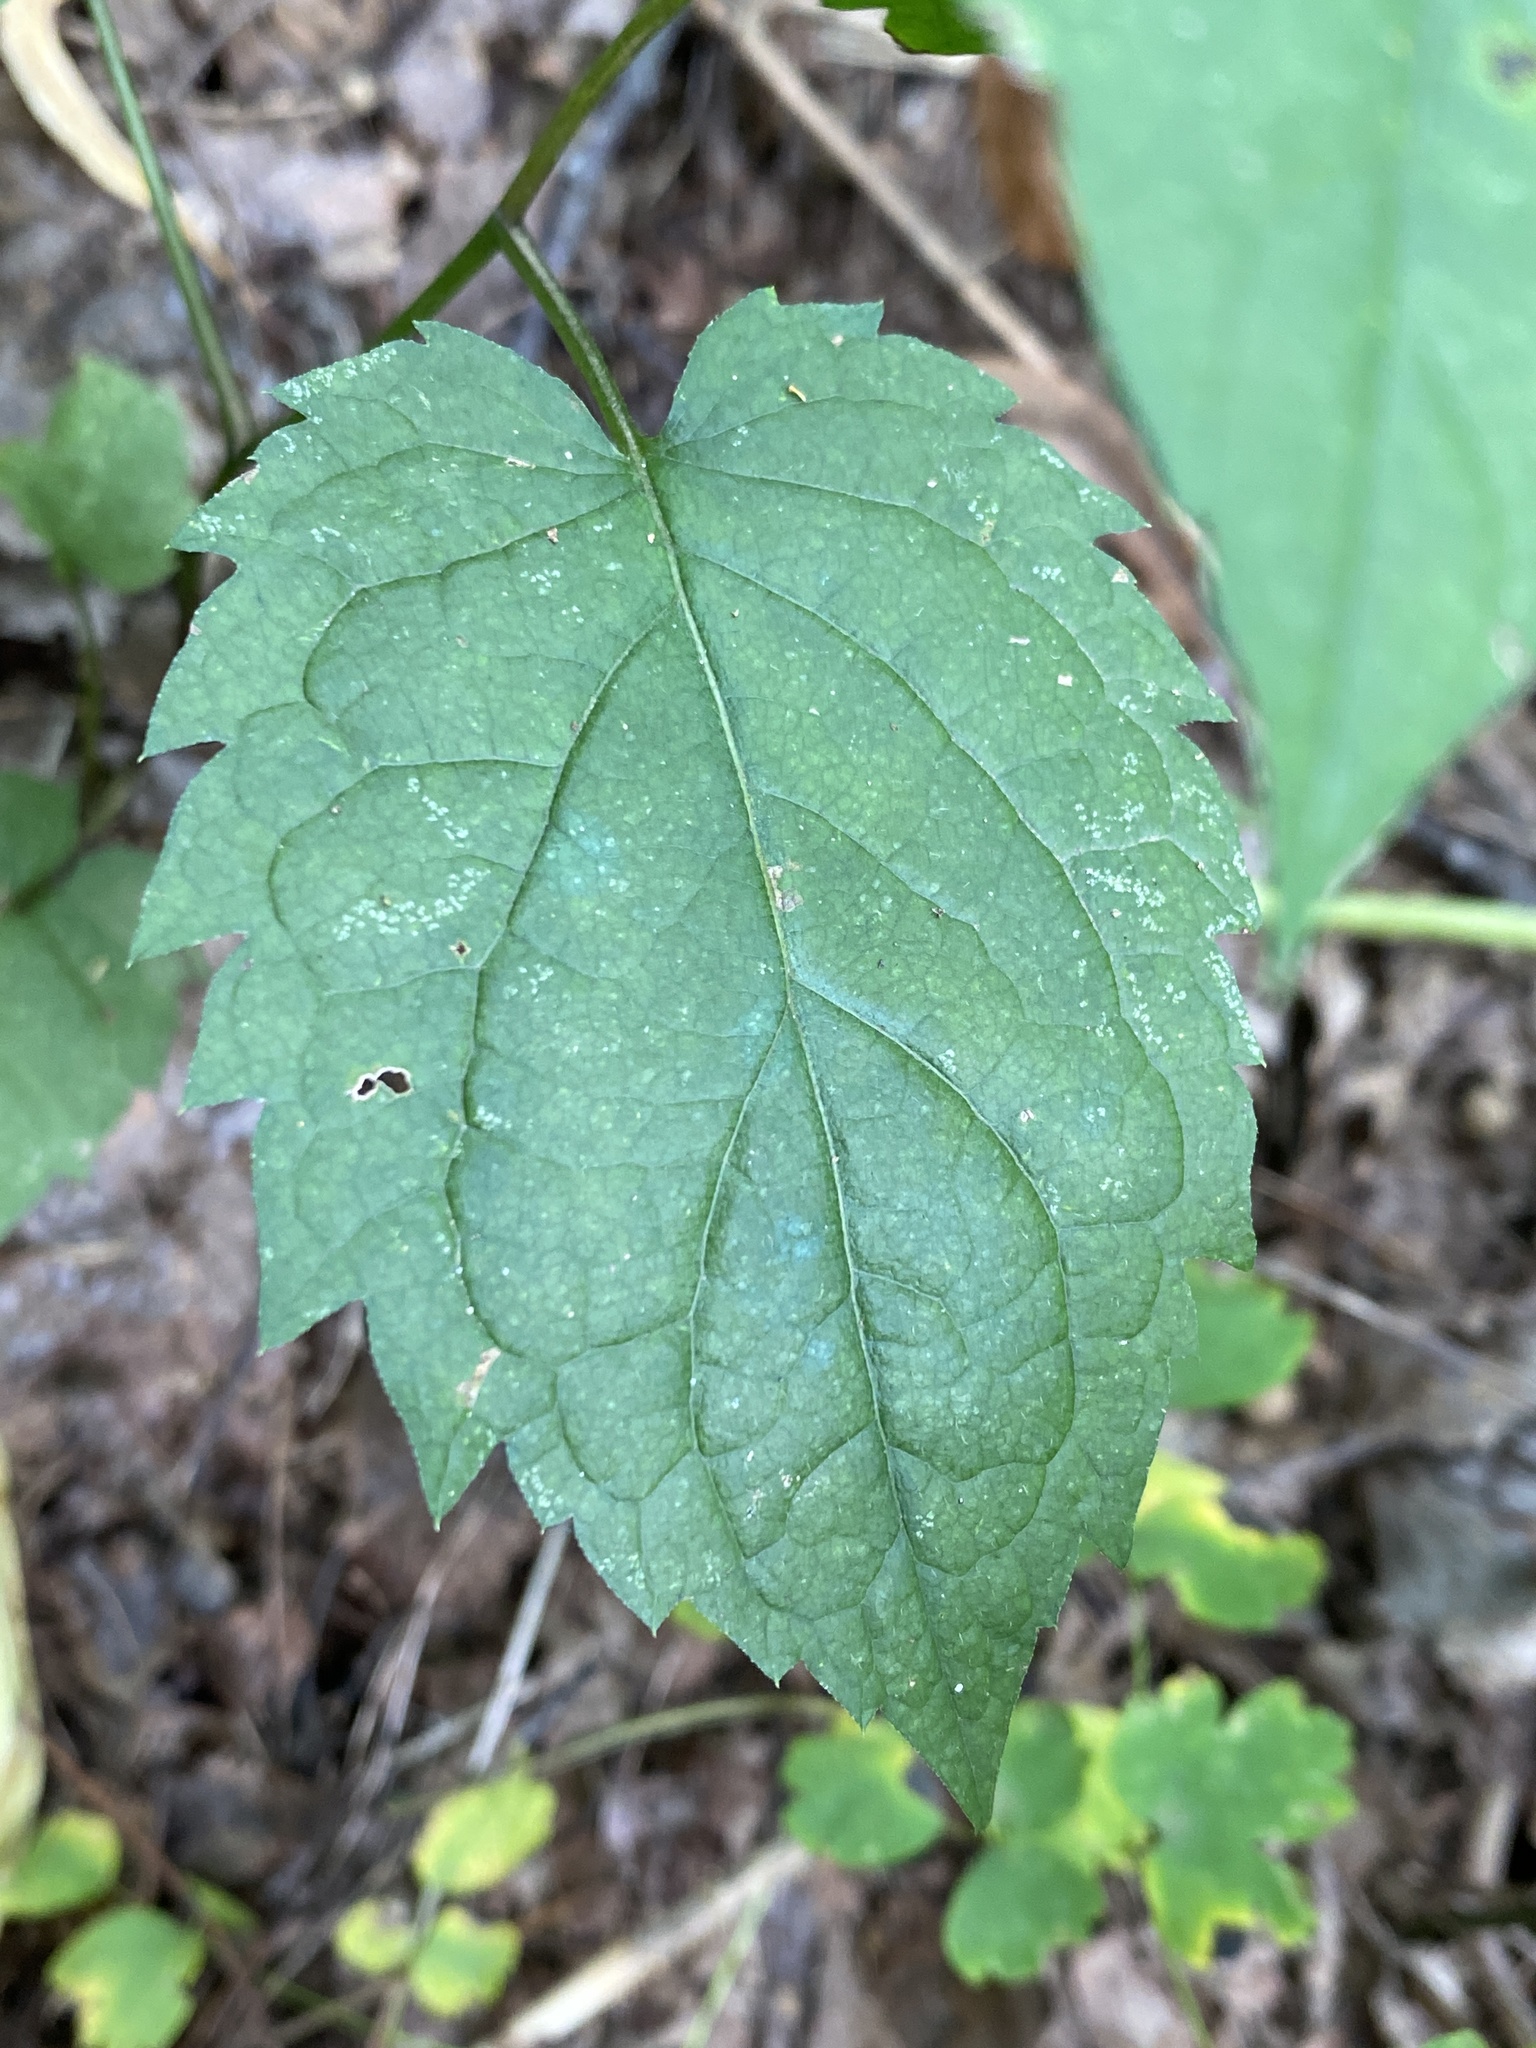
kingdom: Plantae
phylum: Tracheophyta
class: Magnoliopsida
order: Asterales
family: Asteraceae
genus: Eurybia
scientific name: Eurybia chlorolepis
